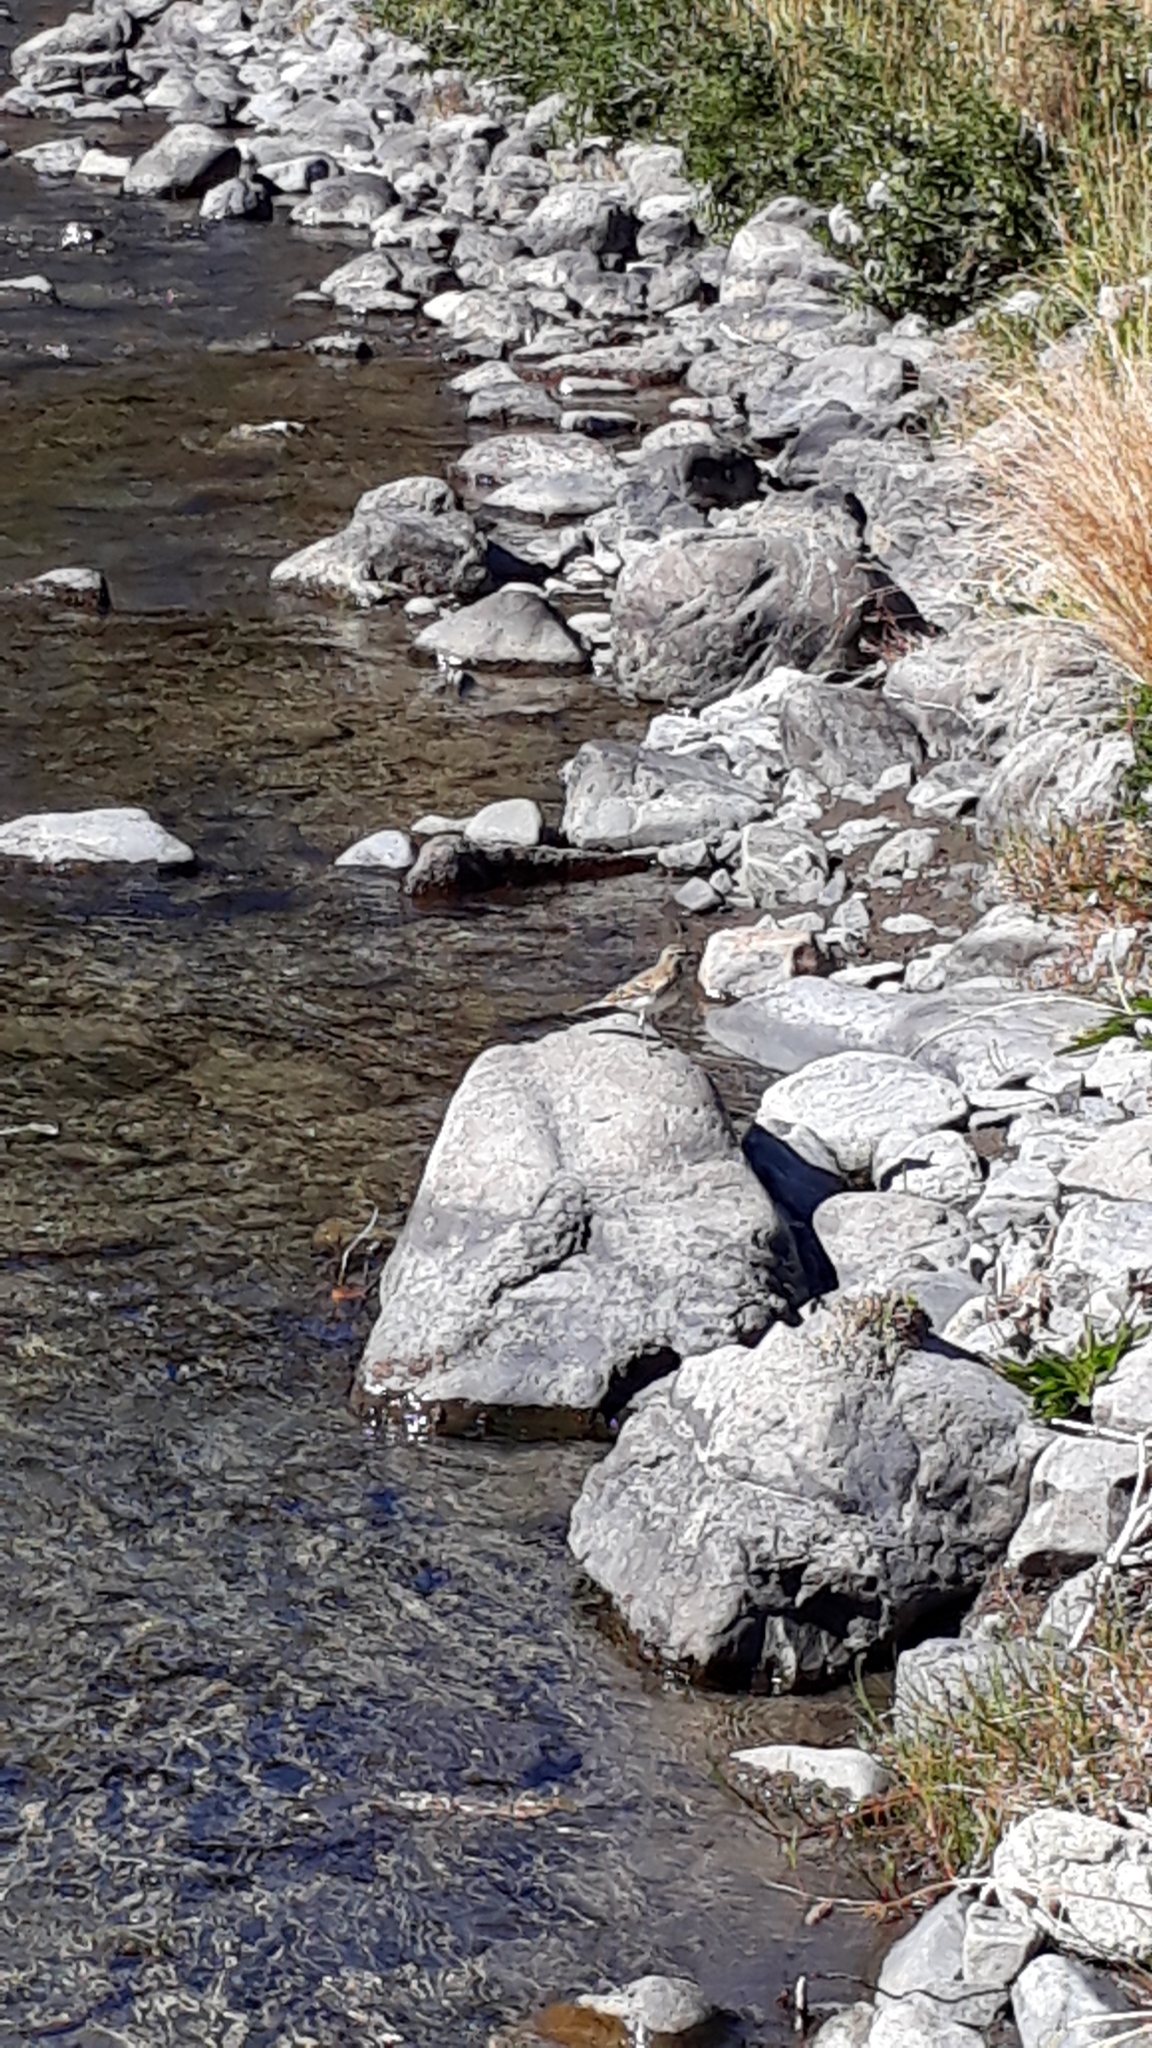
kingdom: Animalia
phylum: Chordata
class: Aves
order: Passeriformes
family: Motacillidae
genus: Anthus
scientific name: Anthus novaeseelandiae
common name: New zealand pipit
